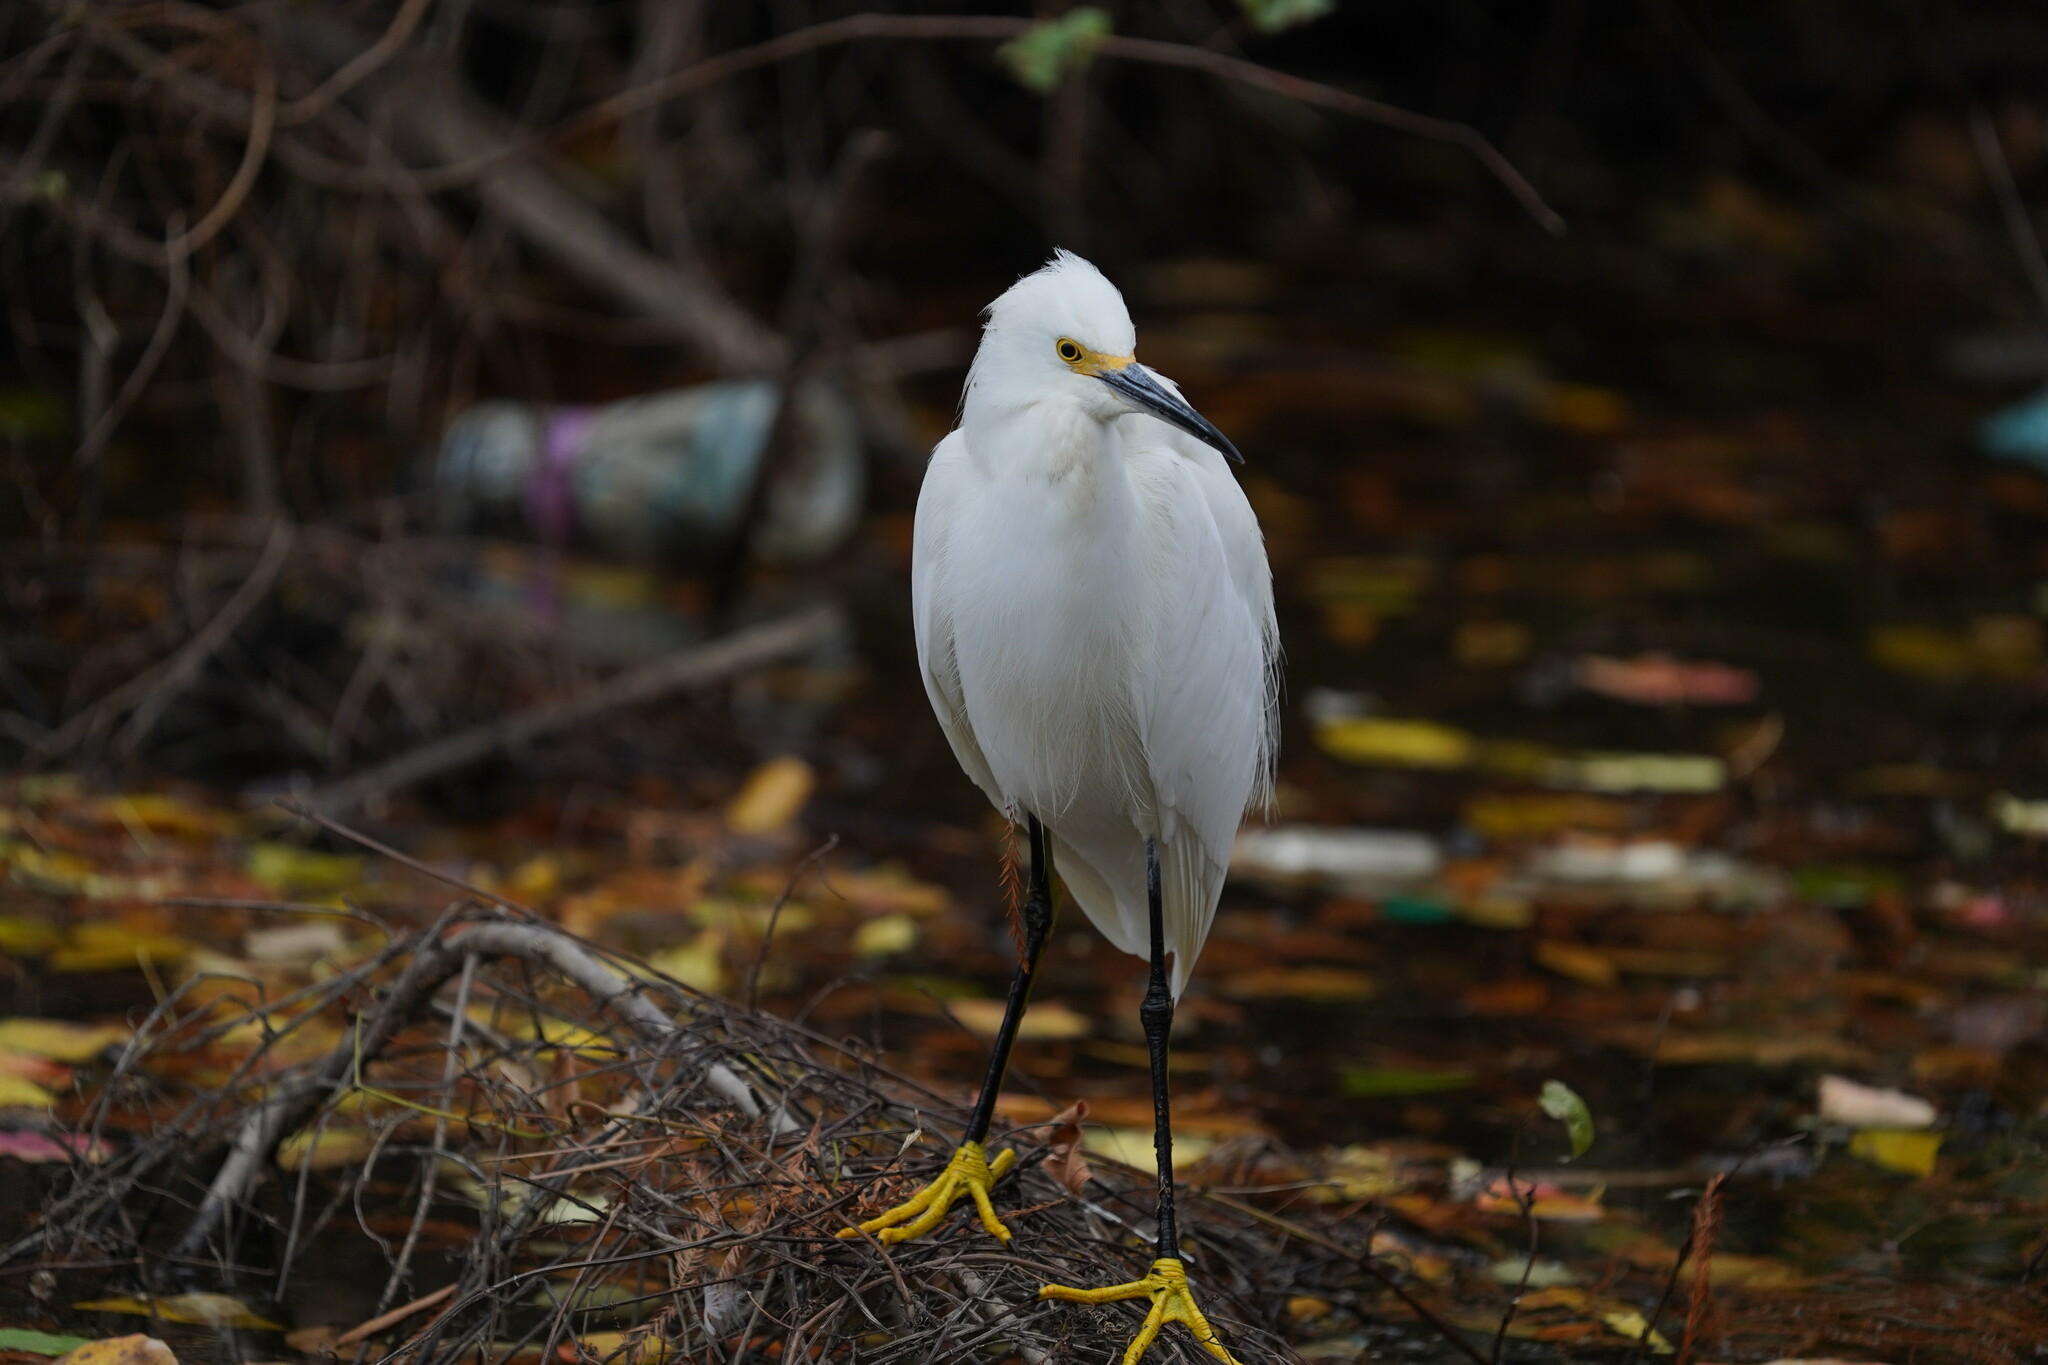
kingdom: Animalia
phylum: Chordata
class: Aves
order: Pelecaniformes
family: Ardeidae
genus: Egretta
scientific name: Egretta thula
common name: Snowy egret
